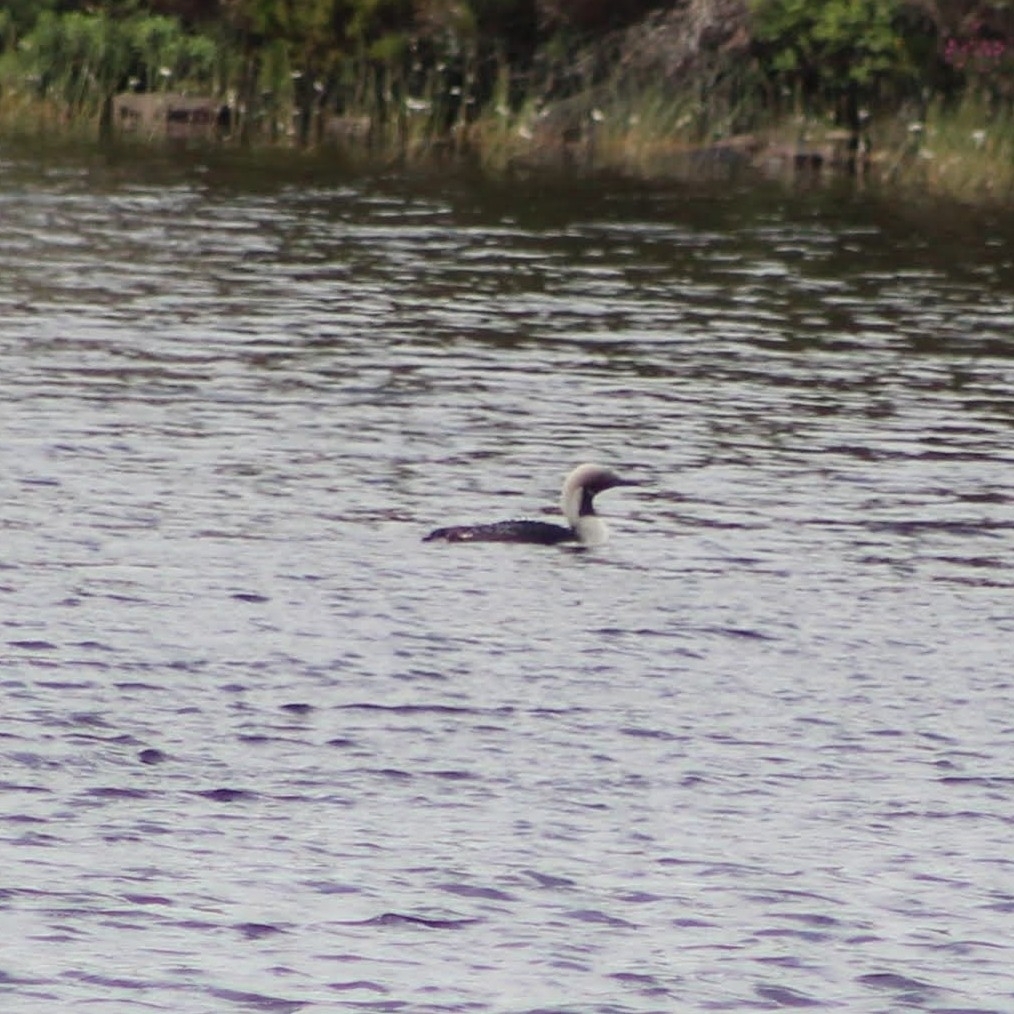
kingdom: Animalia
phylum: Chordata
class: Aves
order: Gaviiformes
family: Gaviidae
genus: Gavia
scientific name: Gavia arctica
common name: Black-throated loon
